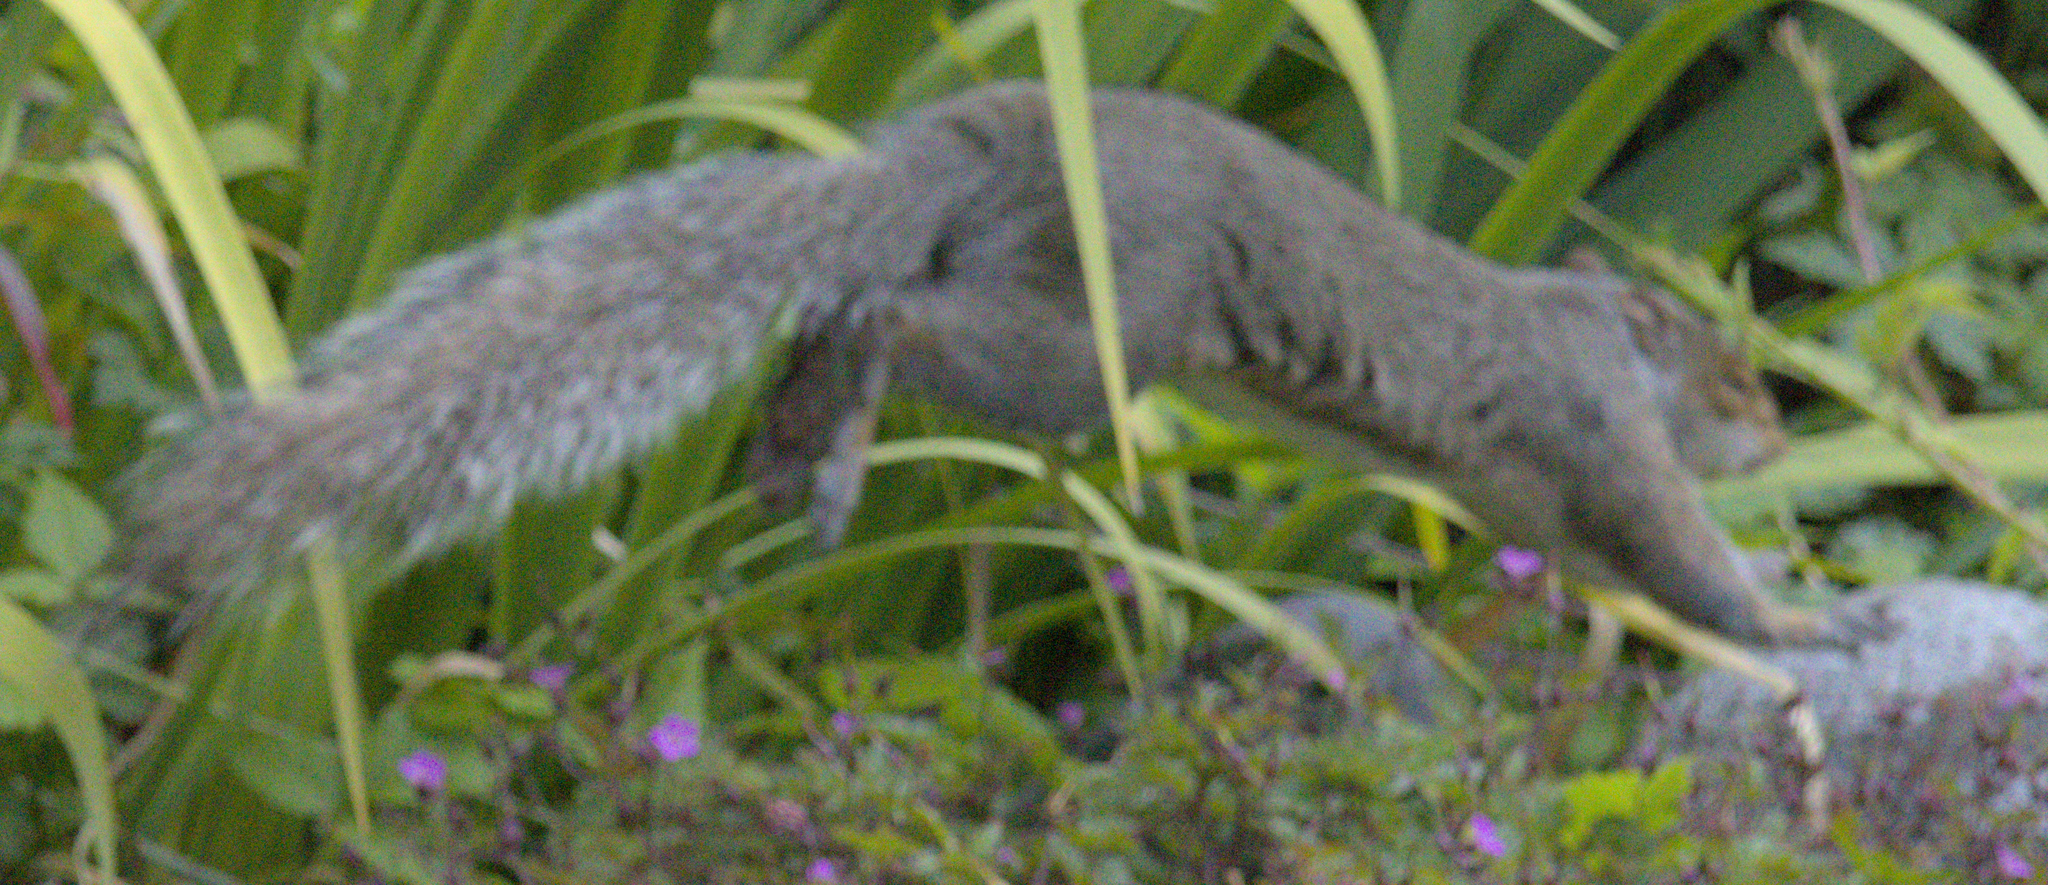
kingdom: Animalia
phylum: Chordata
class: Mammalia
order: Rodentia
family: Sciuridae
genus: Sciurus
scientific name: Sciurus carolinensis
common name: Eastern gray squirrel
